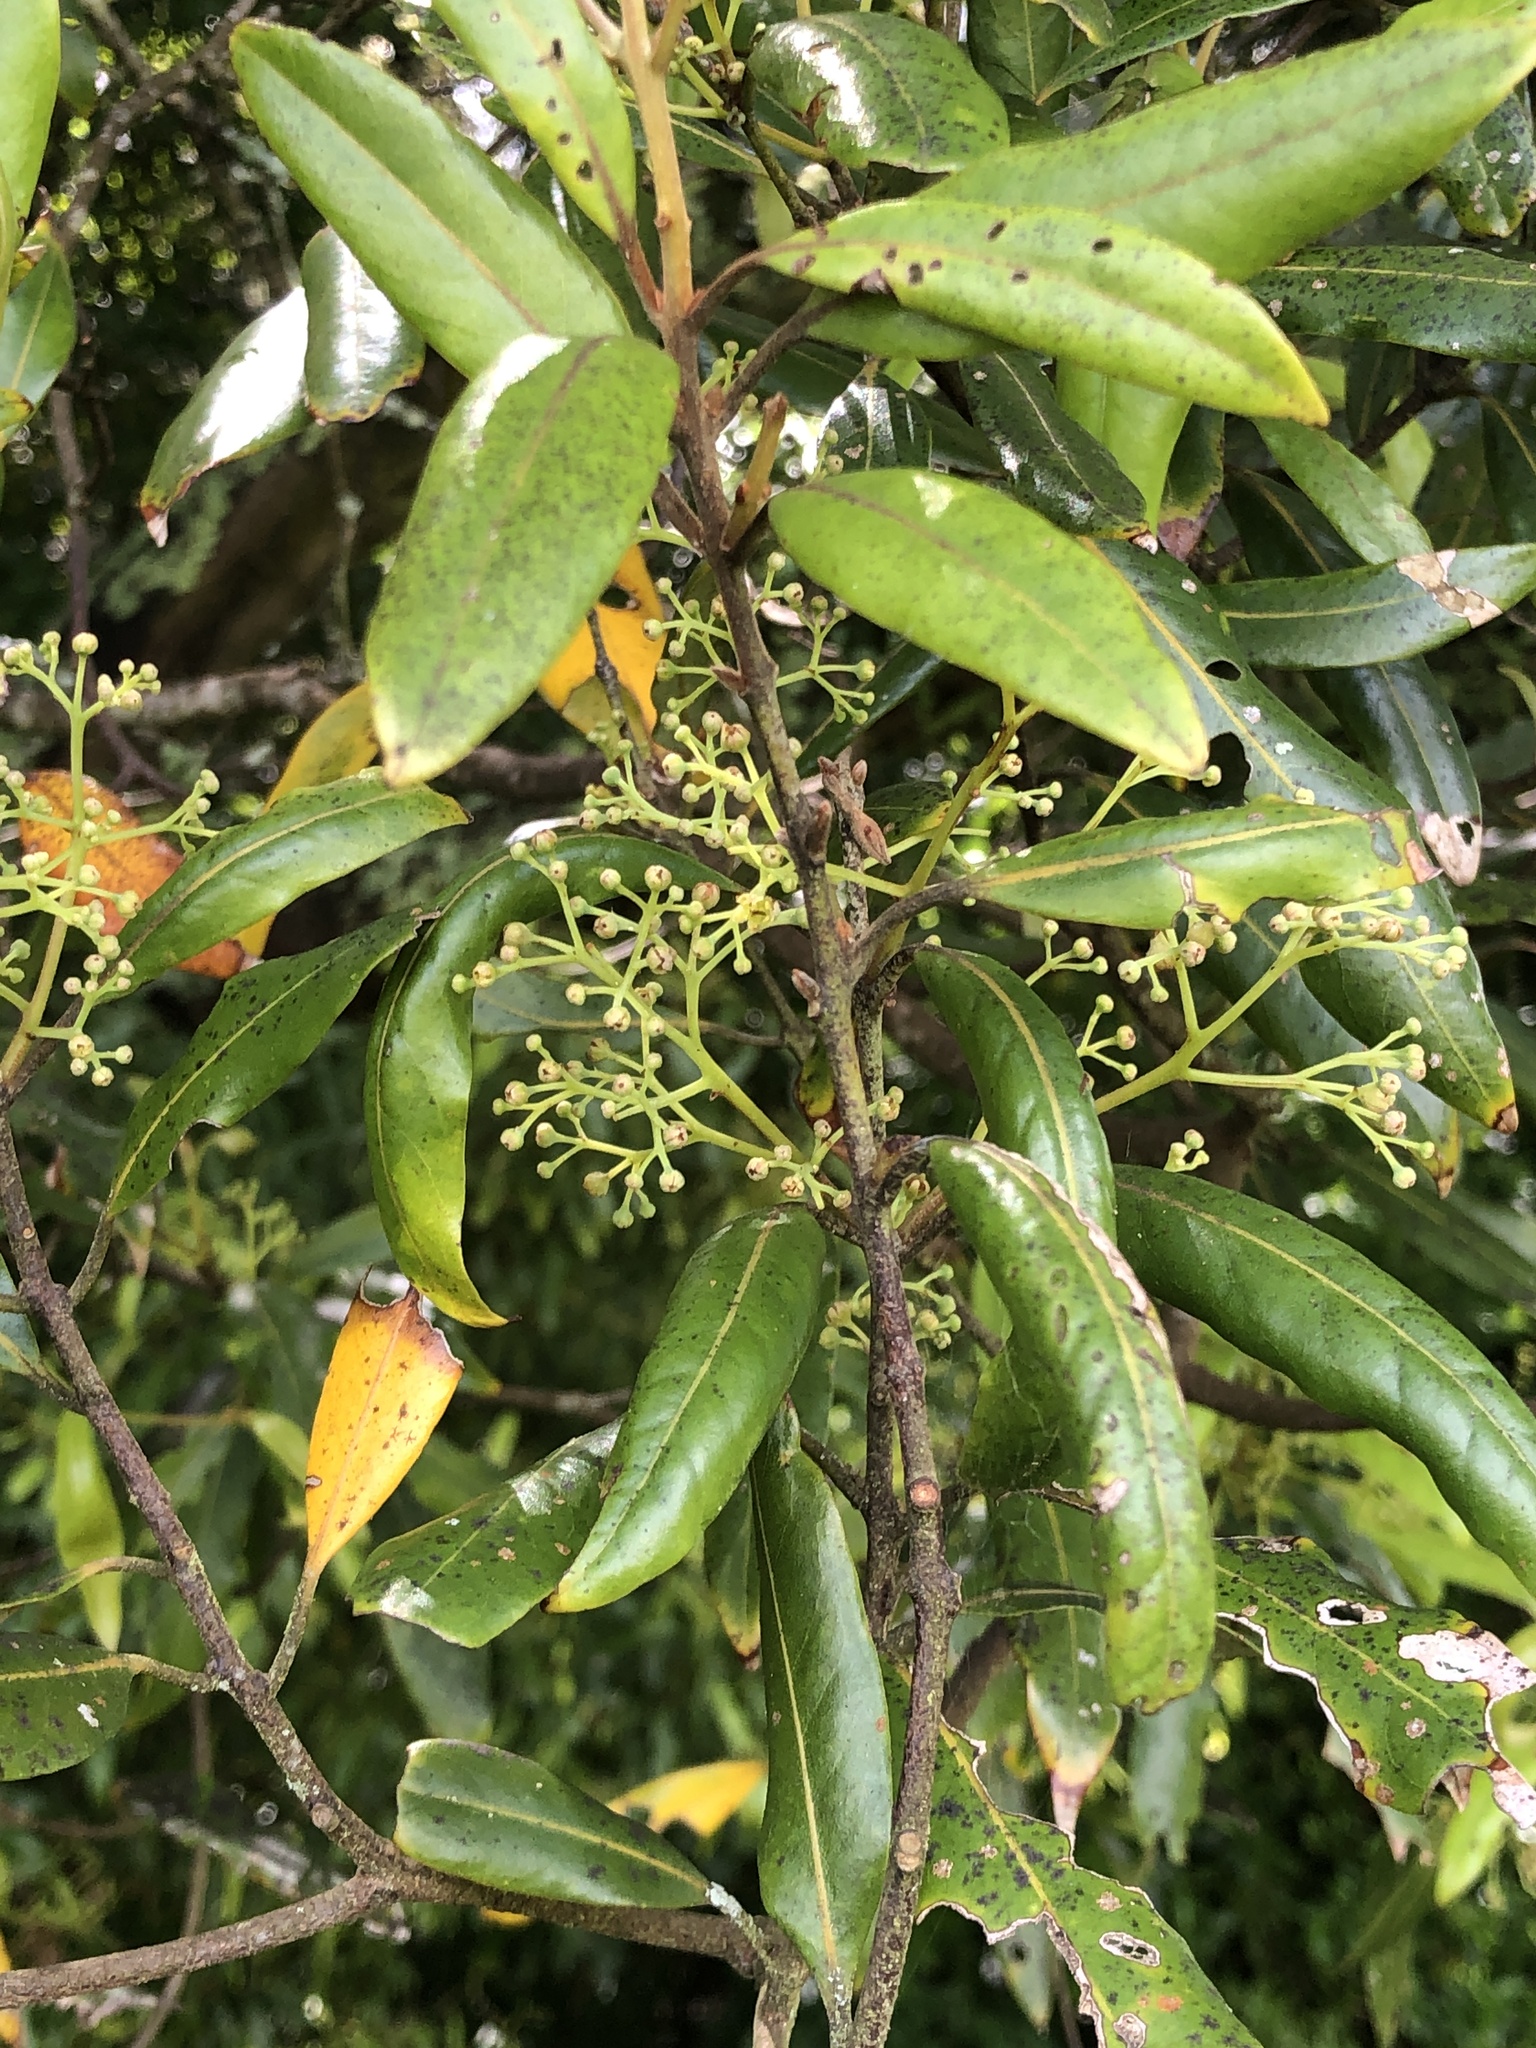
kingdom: Plantae
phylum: Tracheophyta
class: Magnoliopsida
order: Laurales
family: Lauraceae
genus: Beilschmiedia
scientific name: Beilschmiedia tawa
